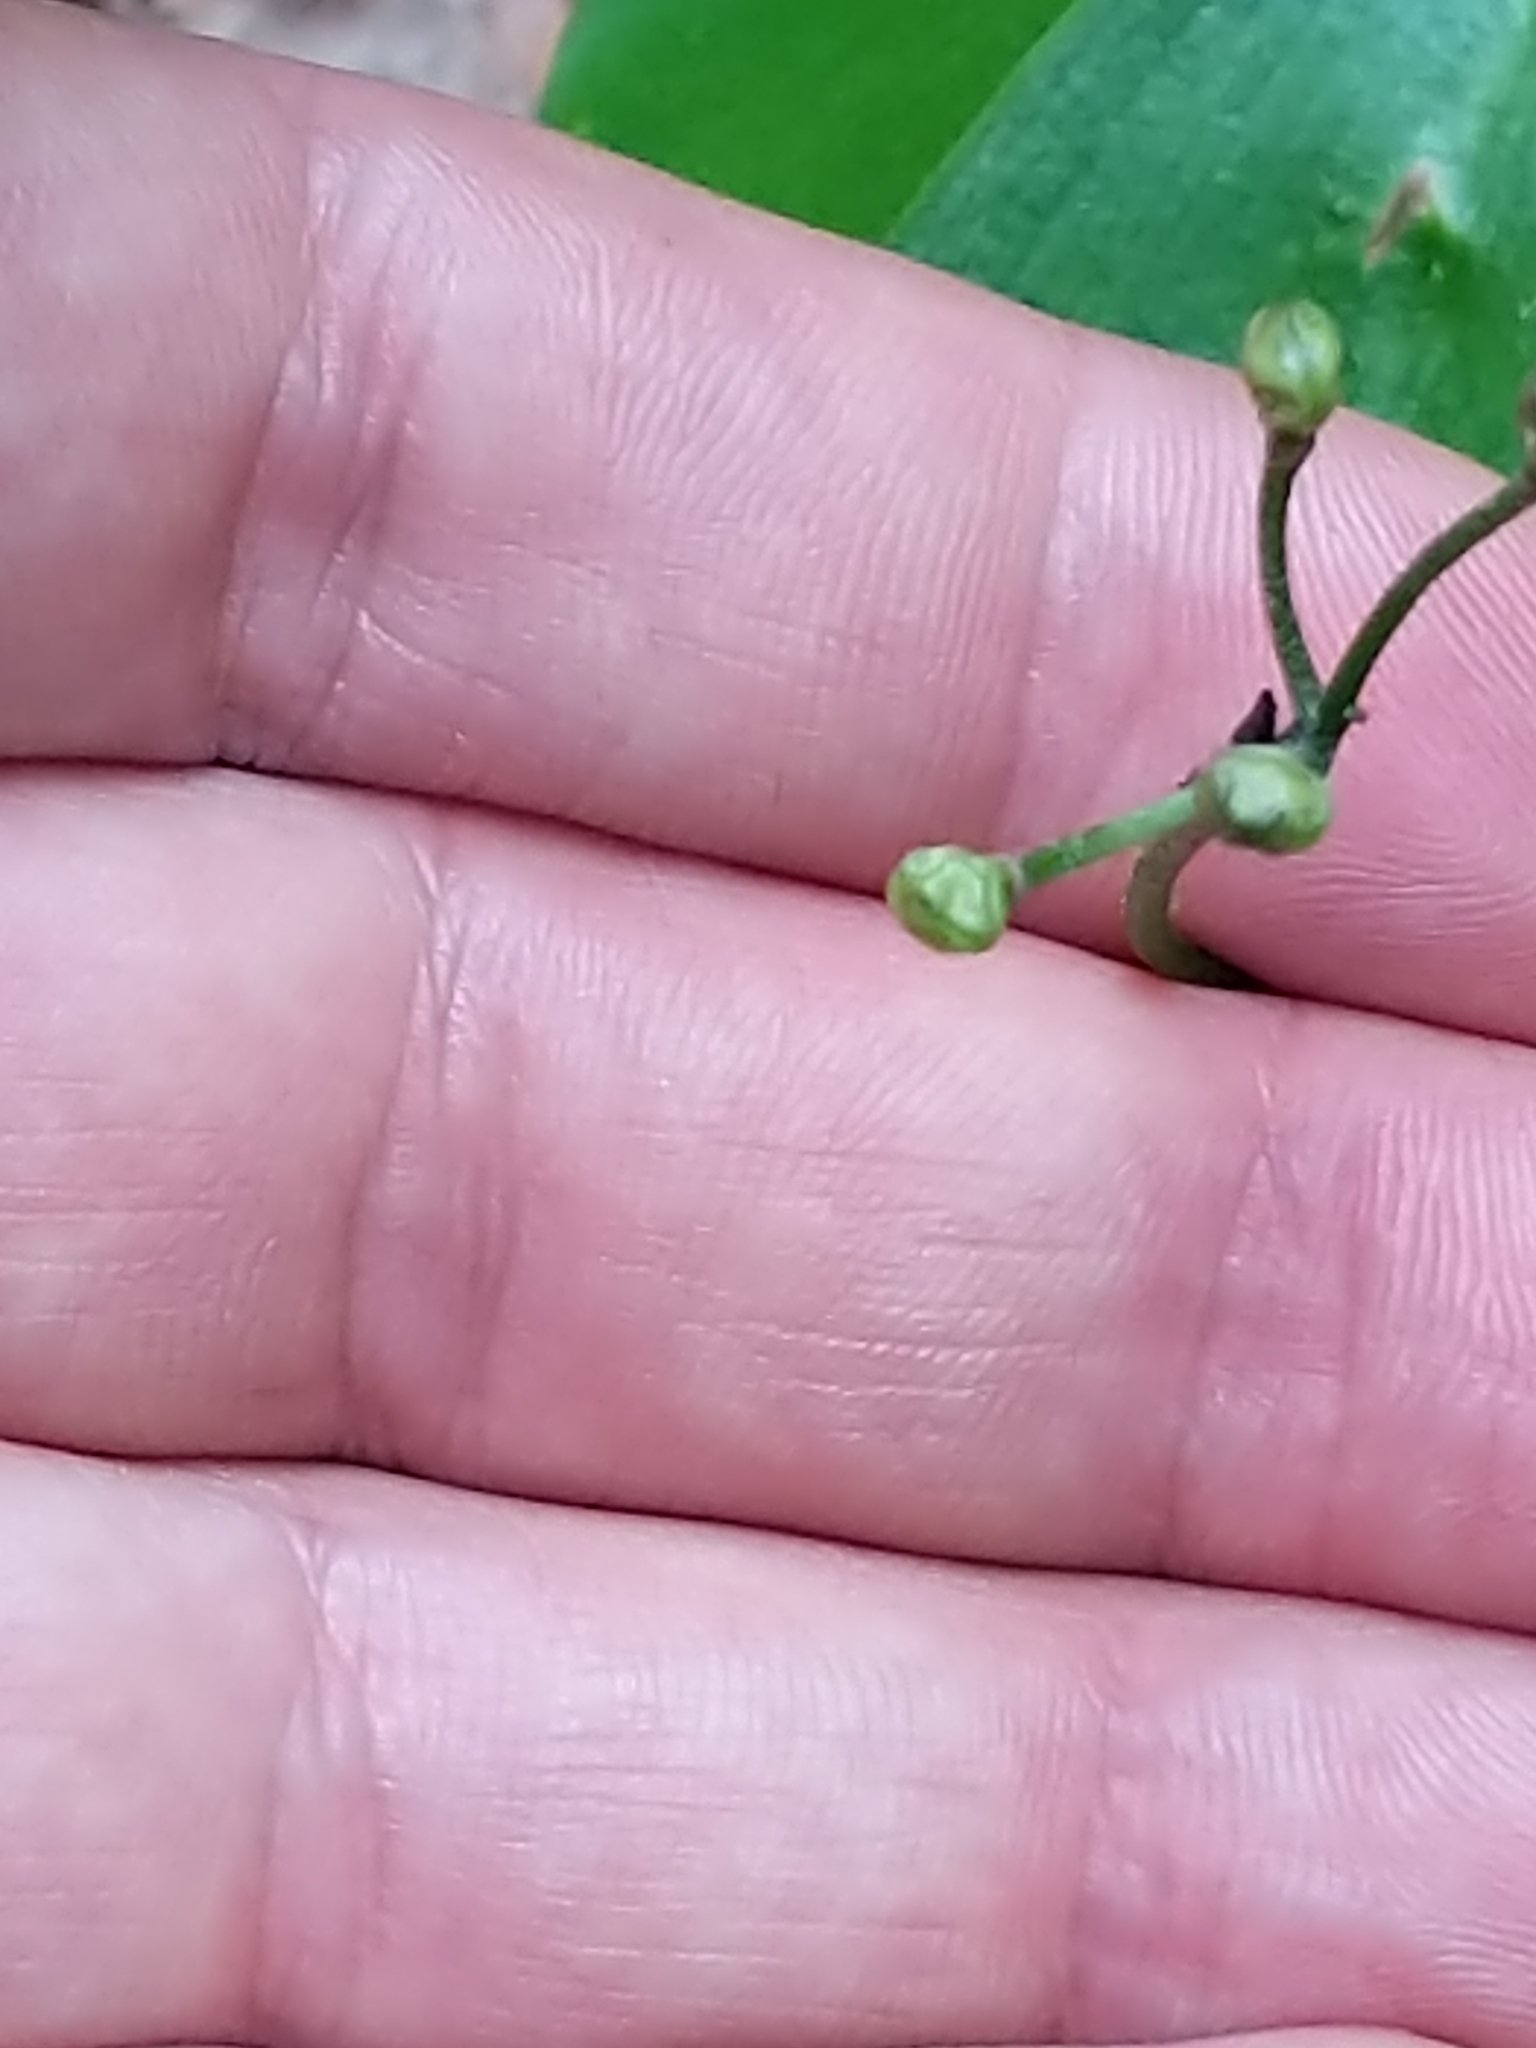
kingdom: Plantae
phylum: Tracheophyta
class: Liliopsida
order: Liliales
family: Liliaceae
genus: Clintonia
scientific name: Clintonia borealis
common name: Yellow clintonia
